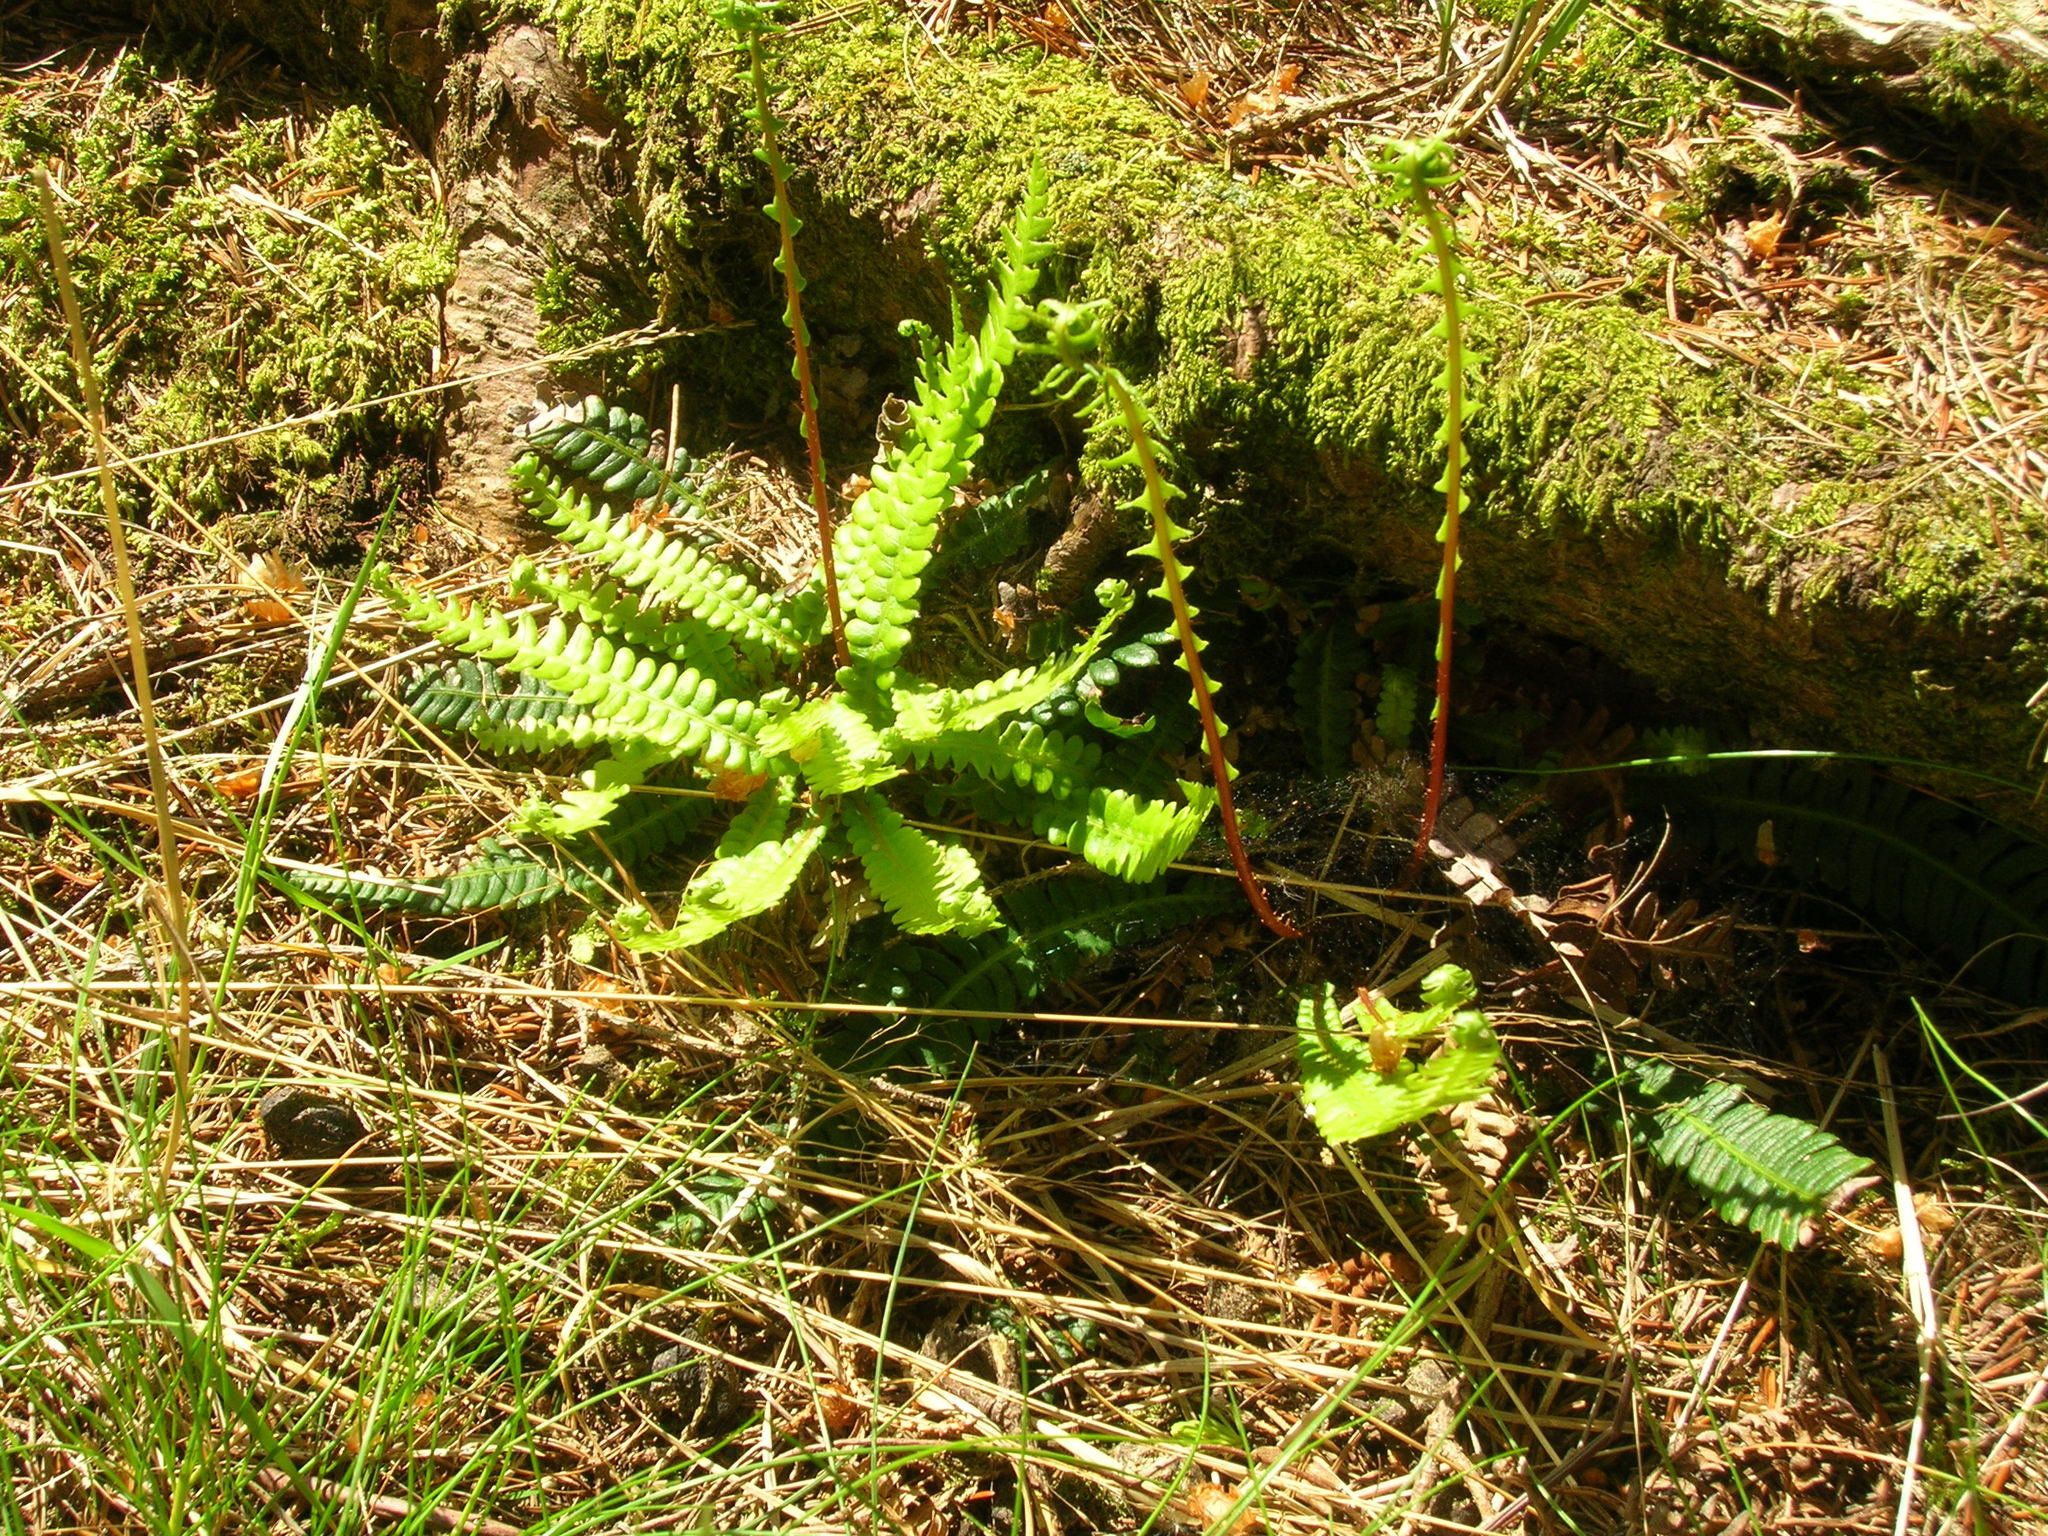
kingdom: Plantae
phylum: Tracheophyta
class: Polypodiopsida
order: Polypodiales
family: Blechnaceae
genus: Struthiopteris
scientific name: Struthiopteris spicant
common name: Deer fern
